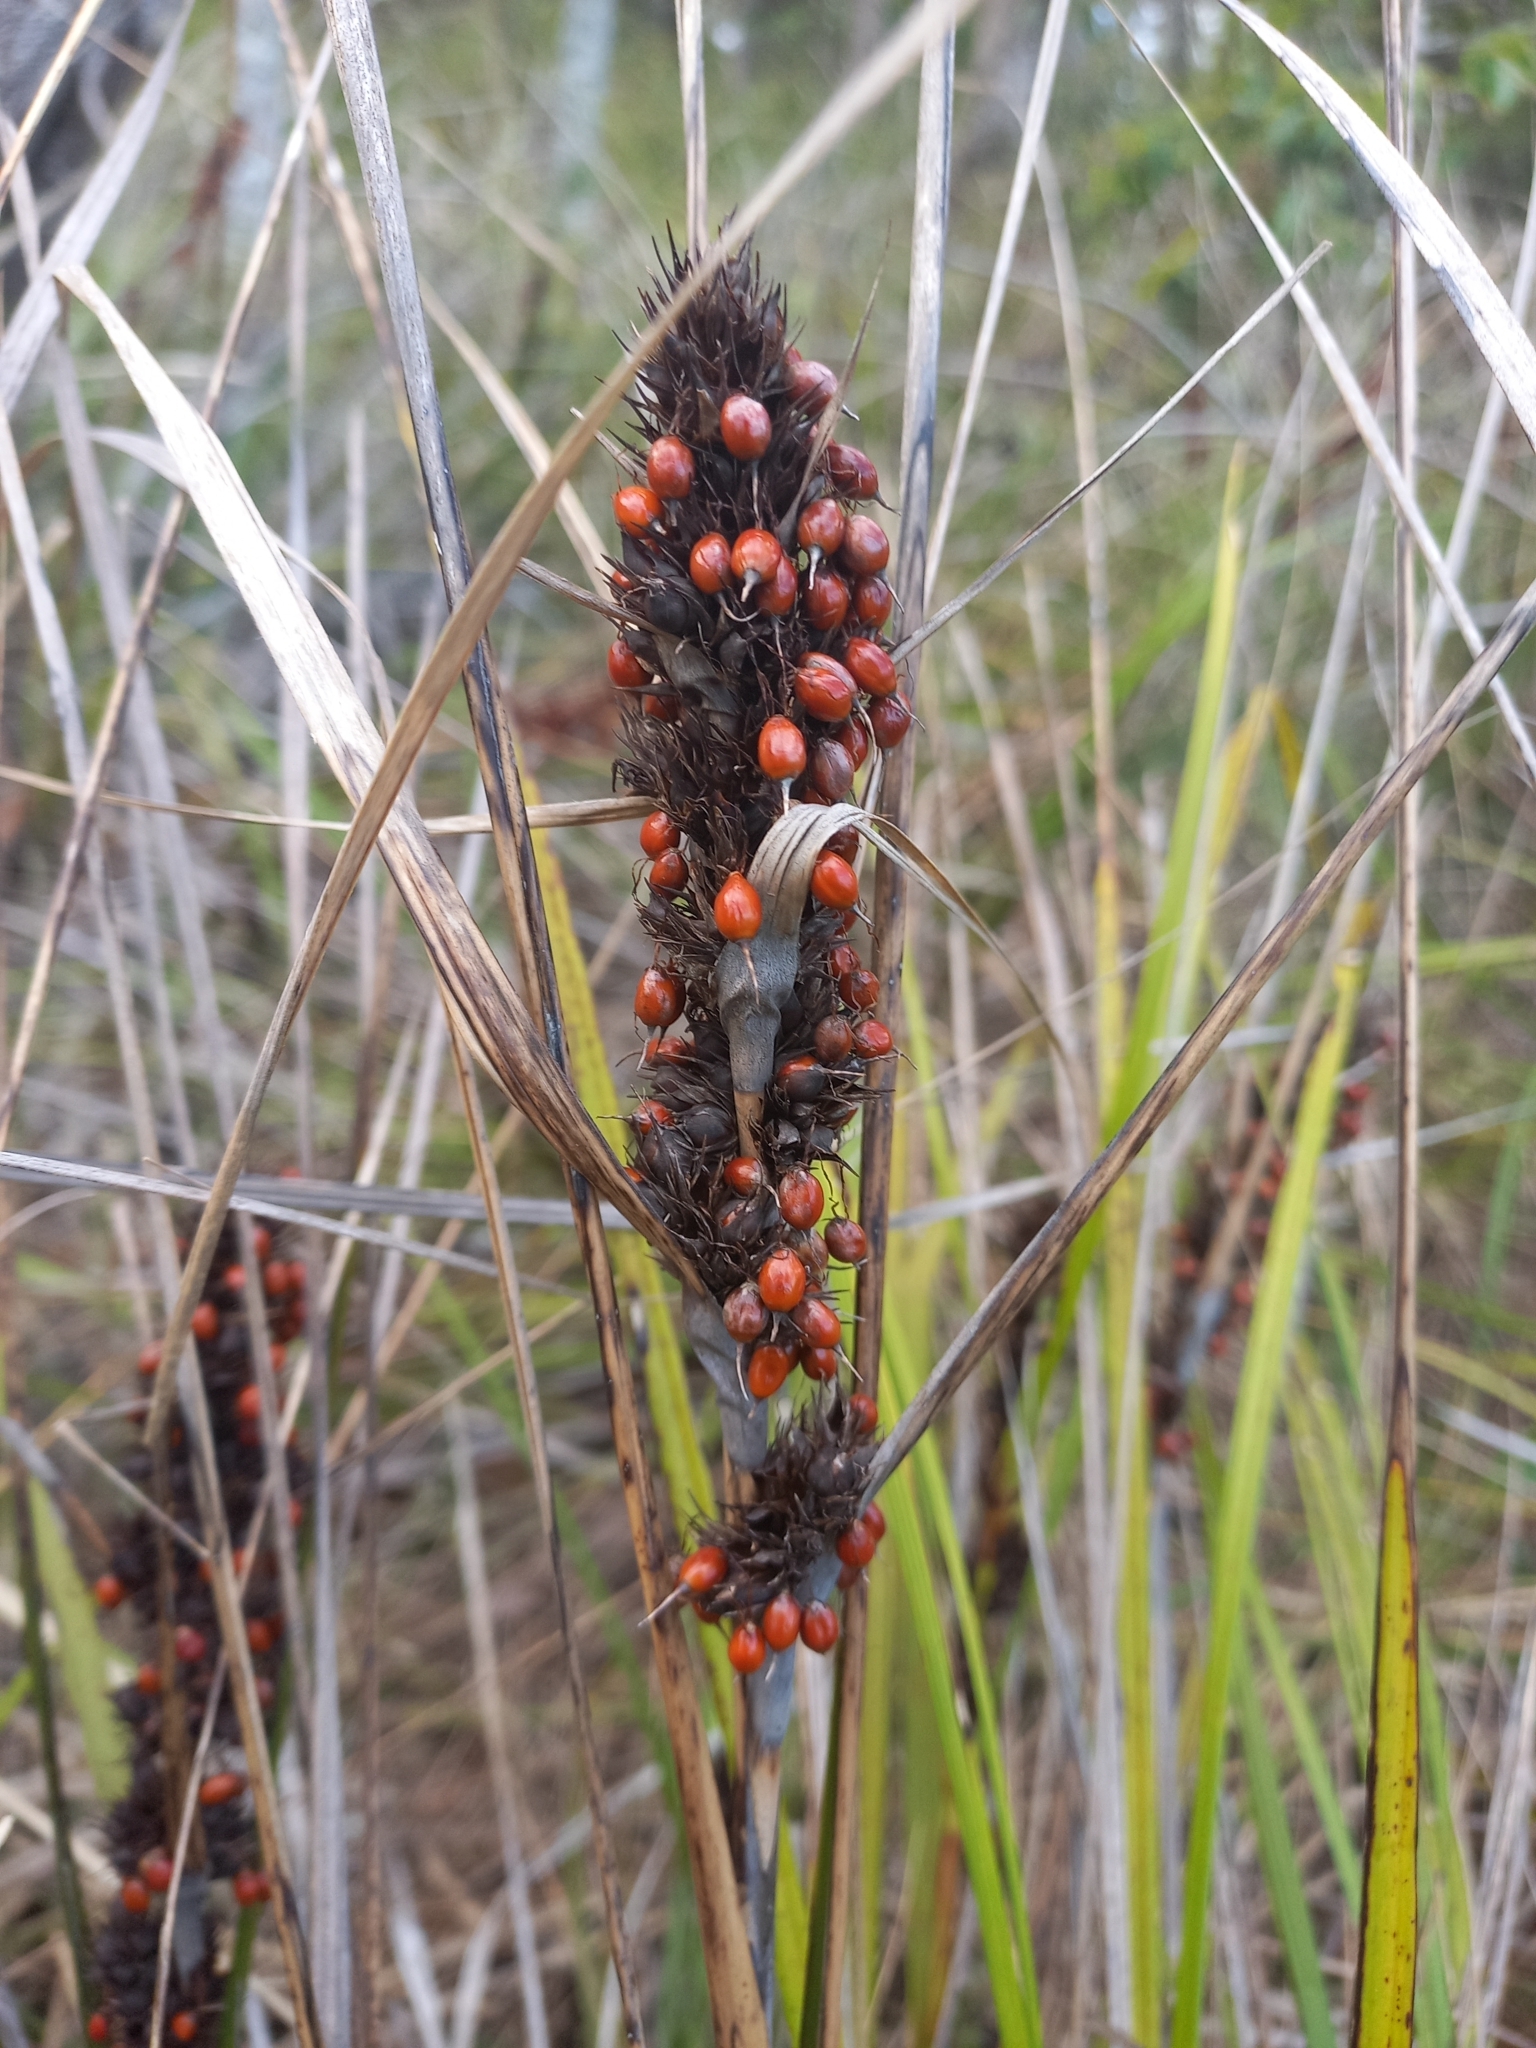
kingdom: Plantae
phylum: Tracheophyta
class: Liliopsida
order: Poales
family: Cyperaceae
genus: Gahnia
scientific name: Gahnia aspera
